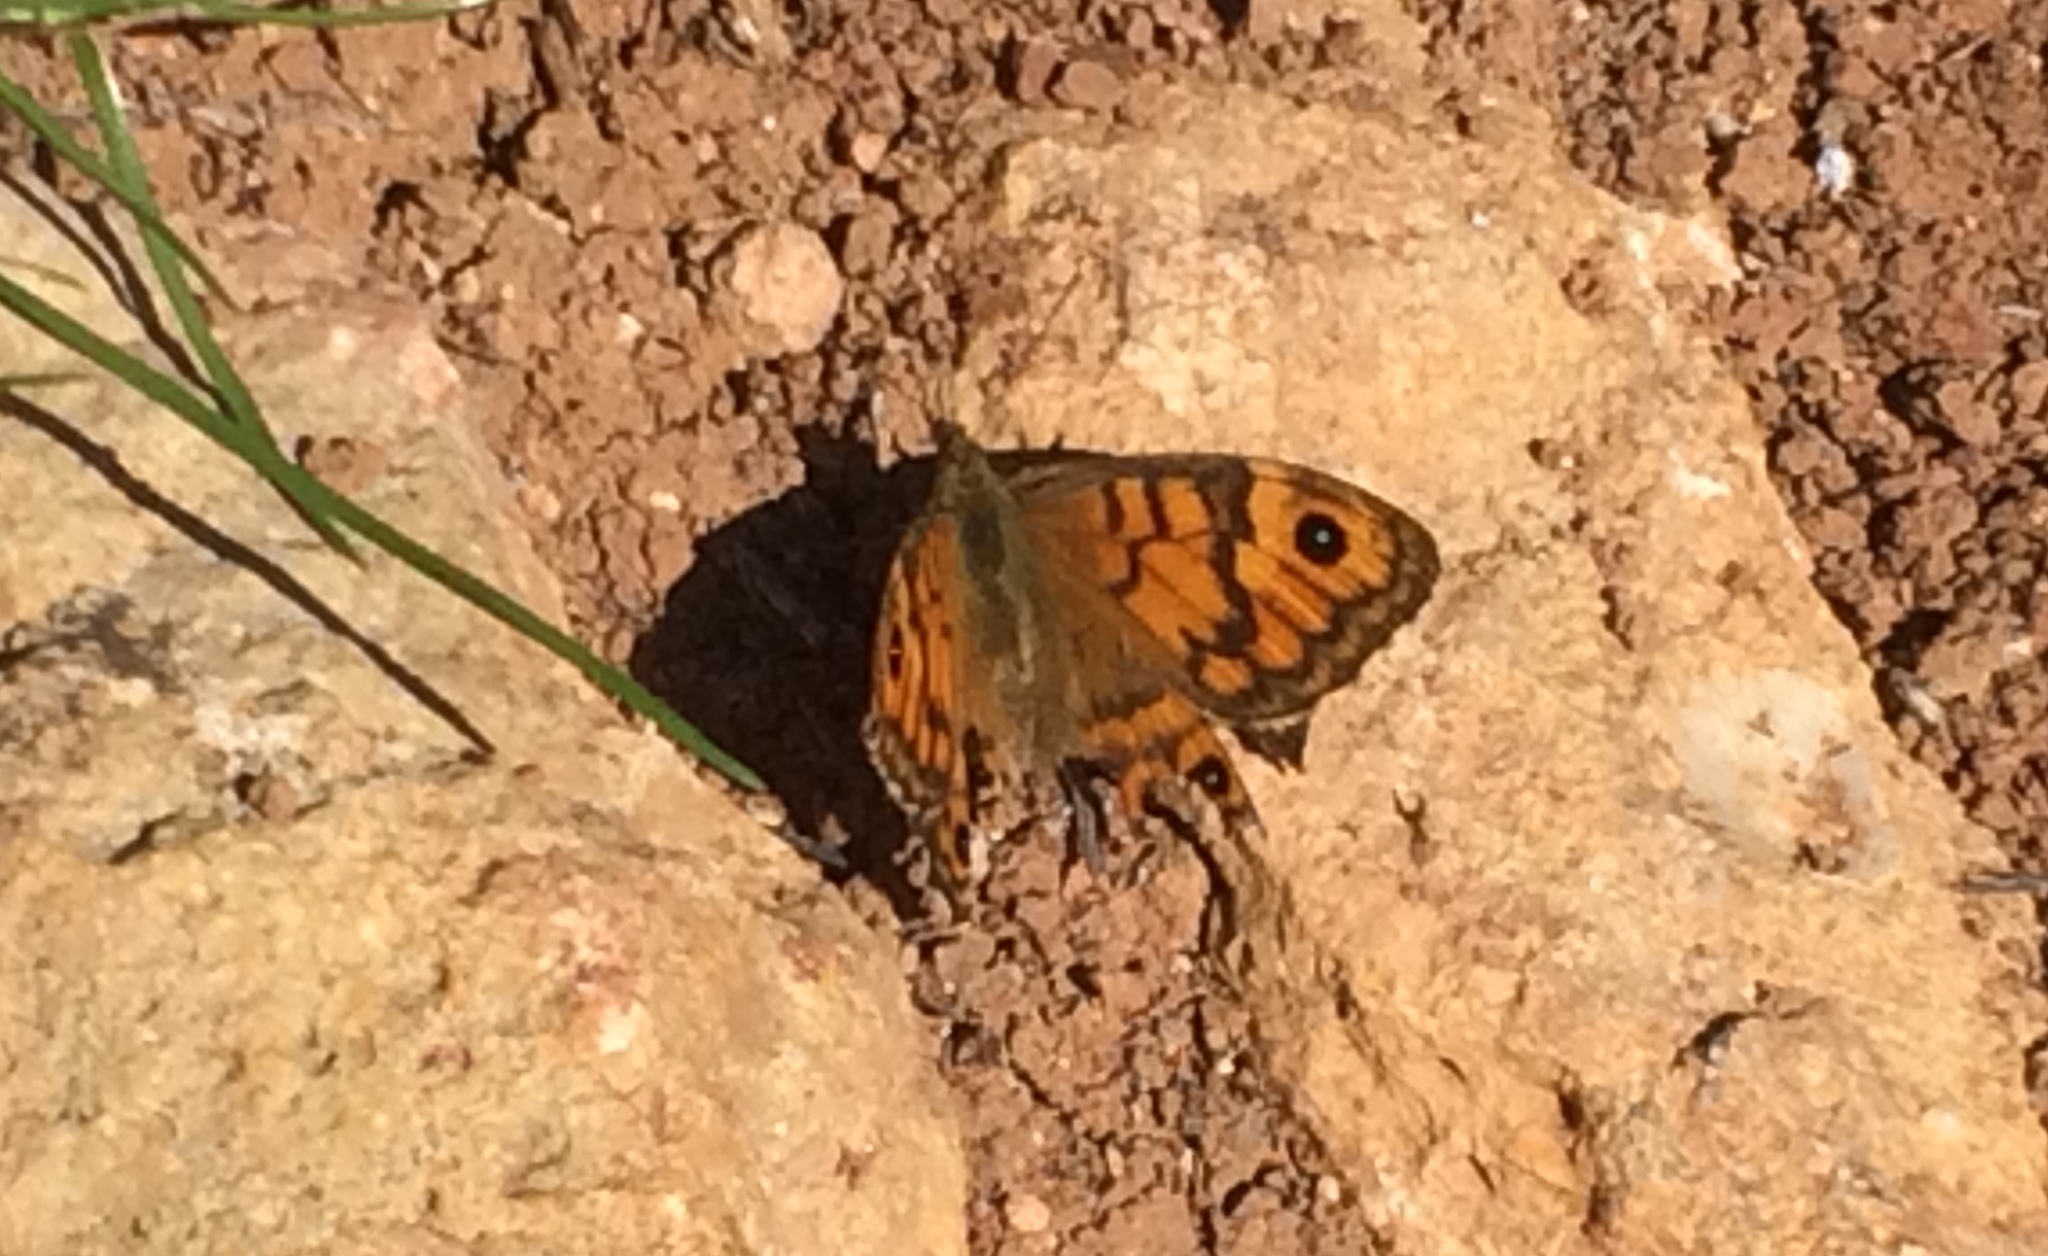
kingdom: Animalia
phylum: Arthropoda
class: Insecta
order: Lepidoptera
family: Nymphalidae
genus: Pararge
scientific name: Pararge Lasiommata megera
